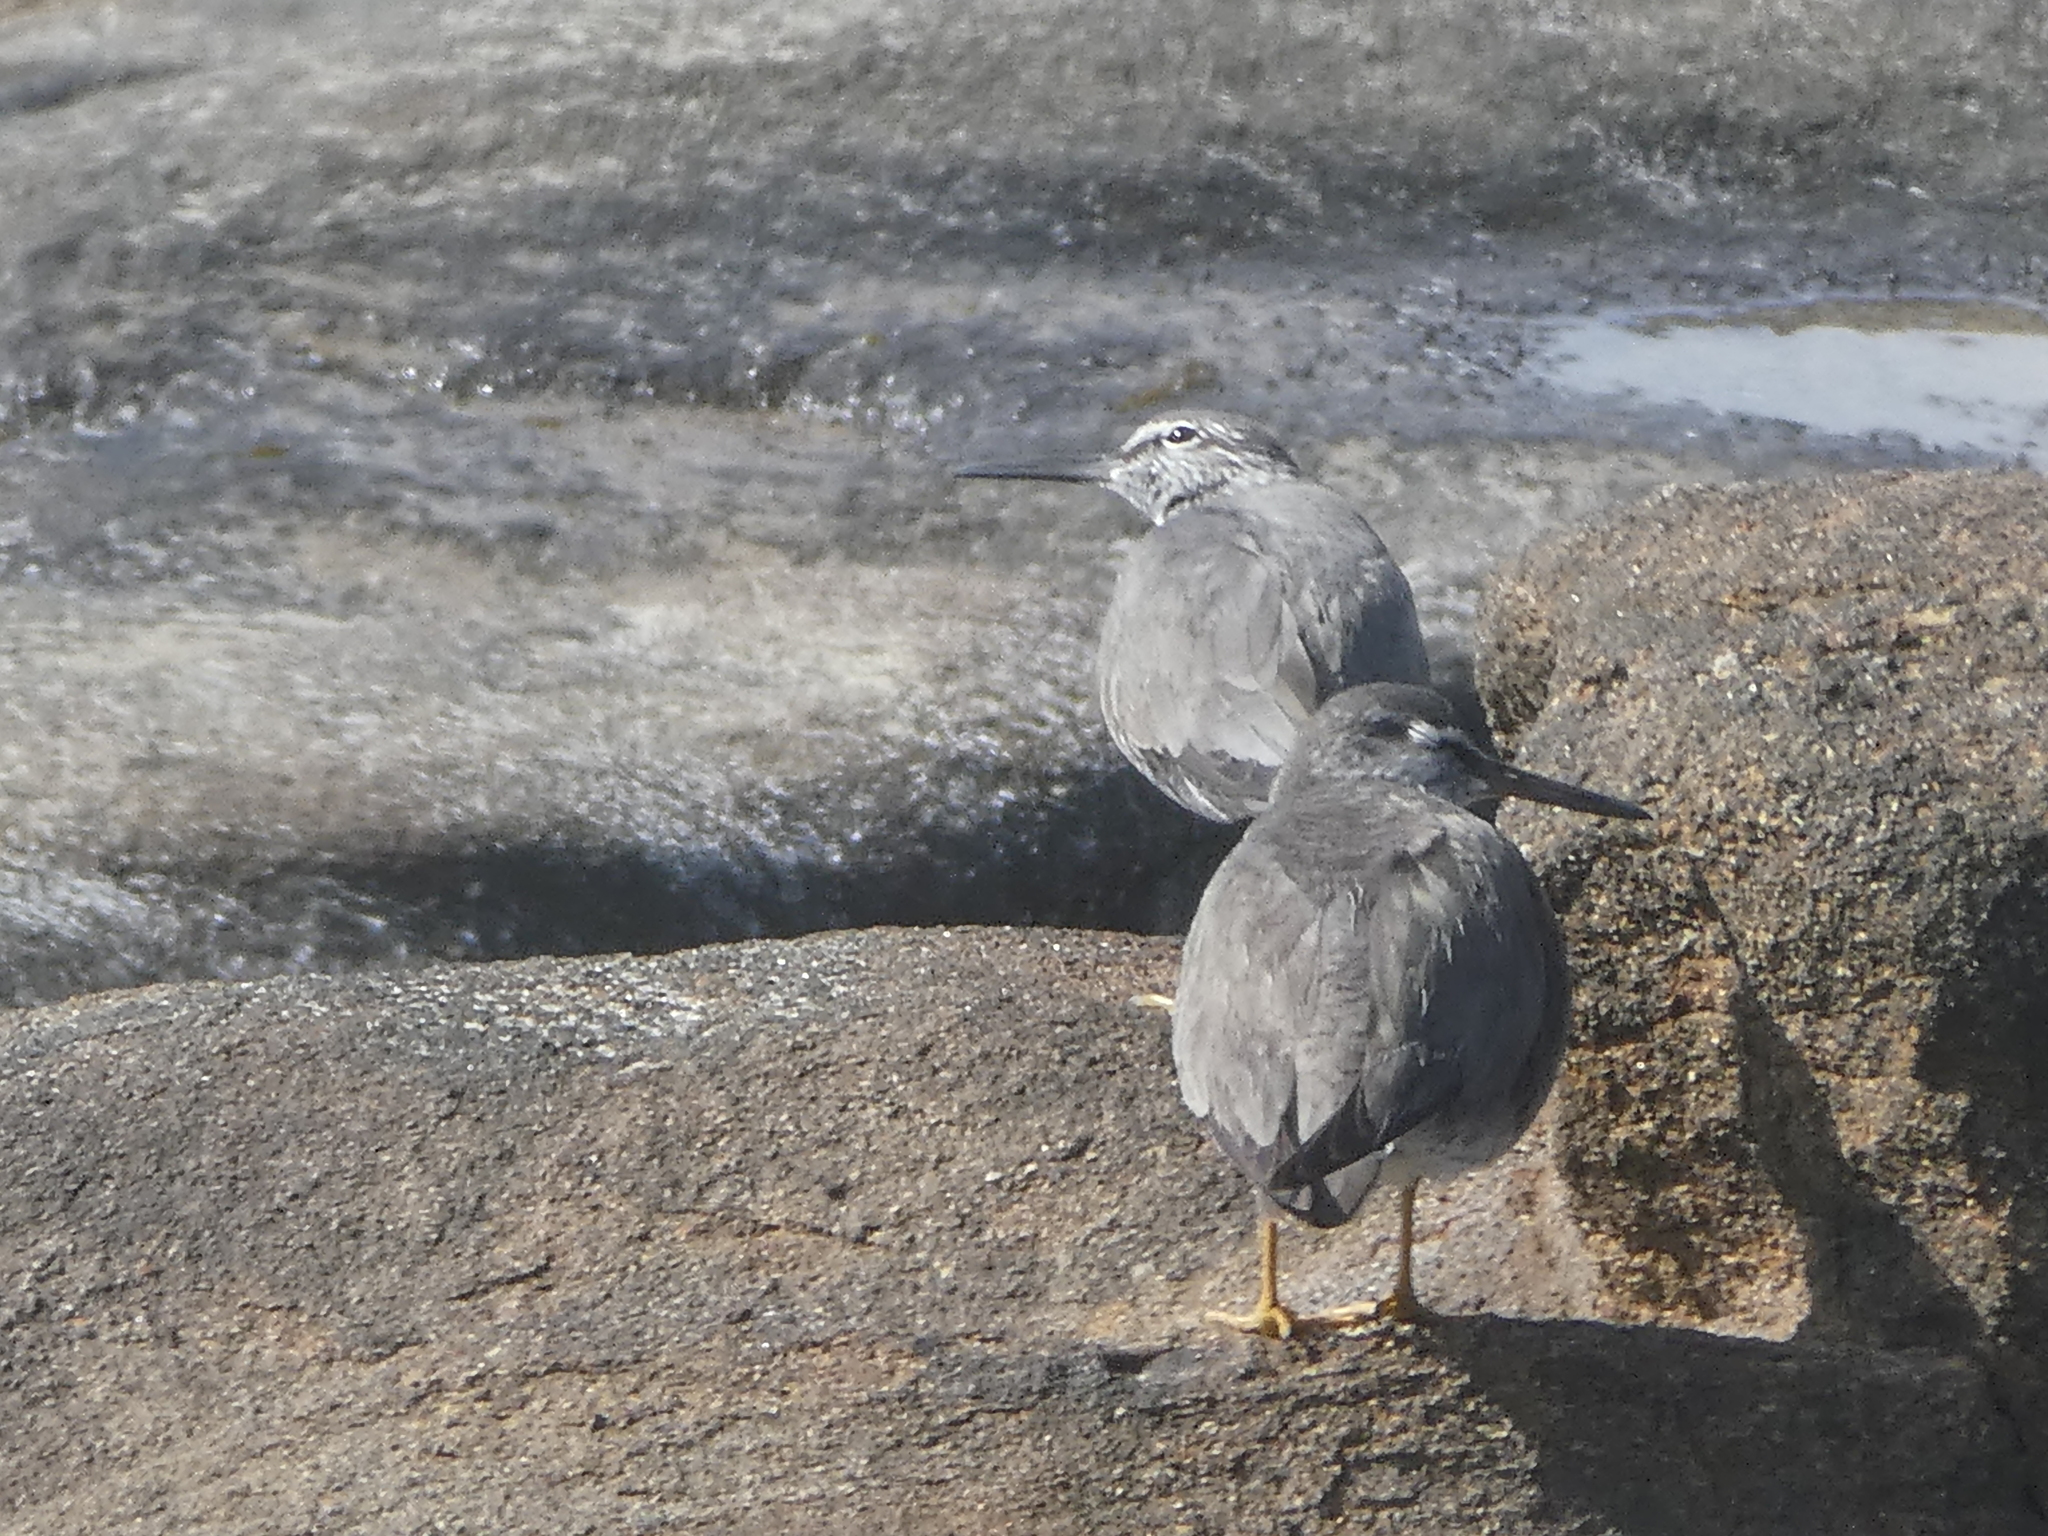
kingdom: Animalia
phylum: Chordata
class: Aves
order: Charadriiformes
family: Scolopacidae
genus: Tringa
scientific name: Tringa incana
